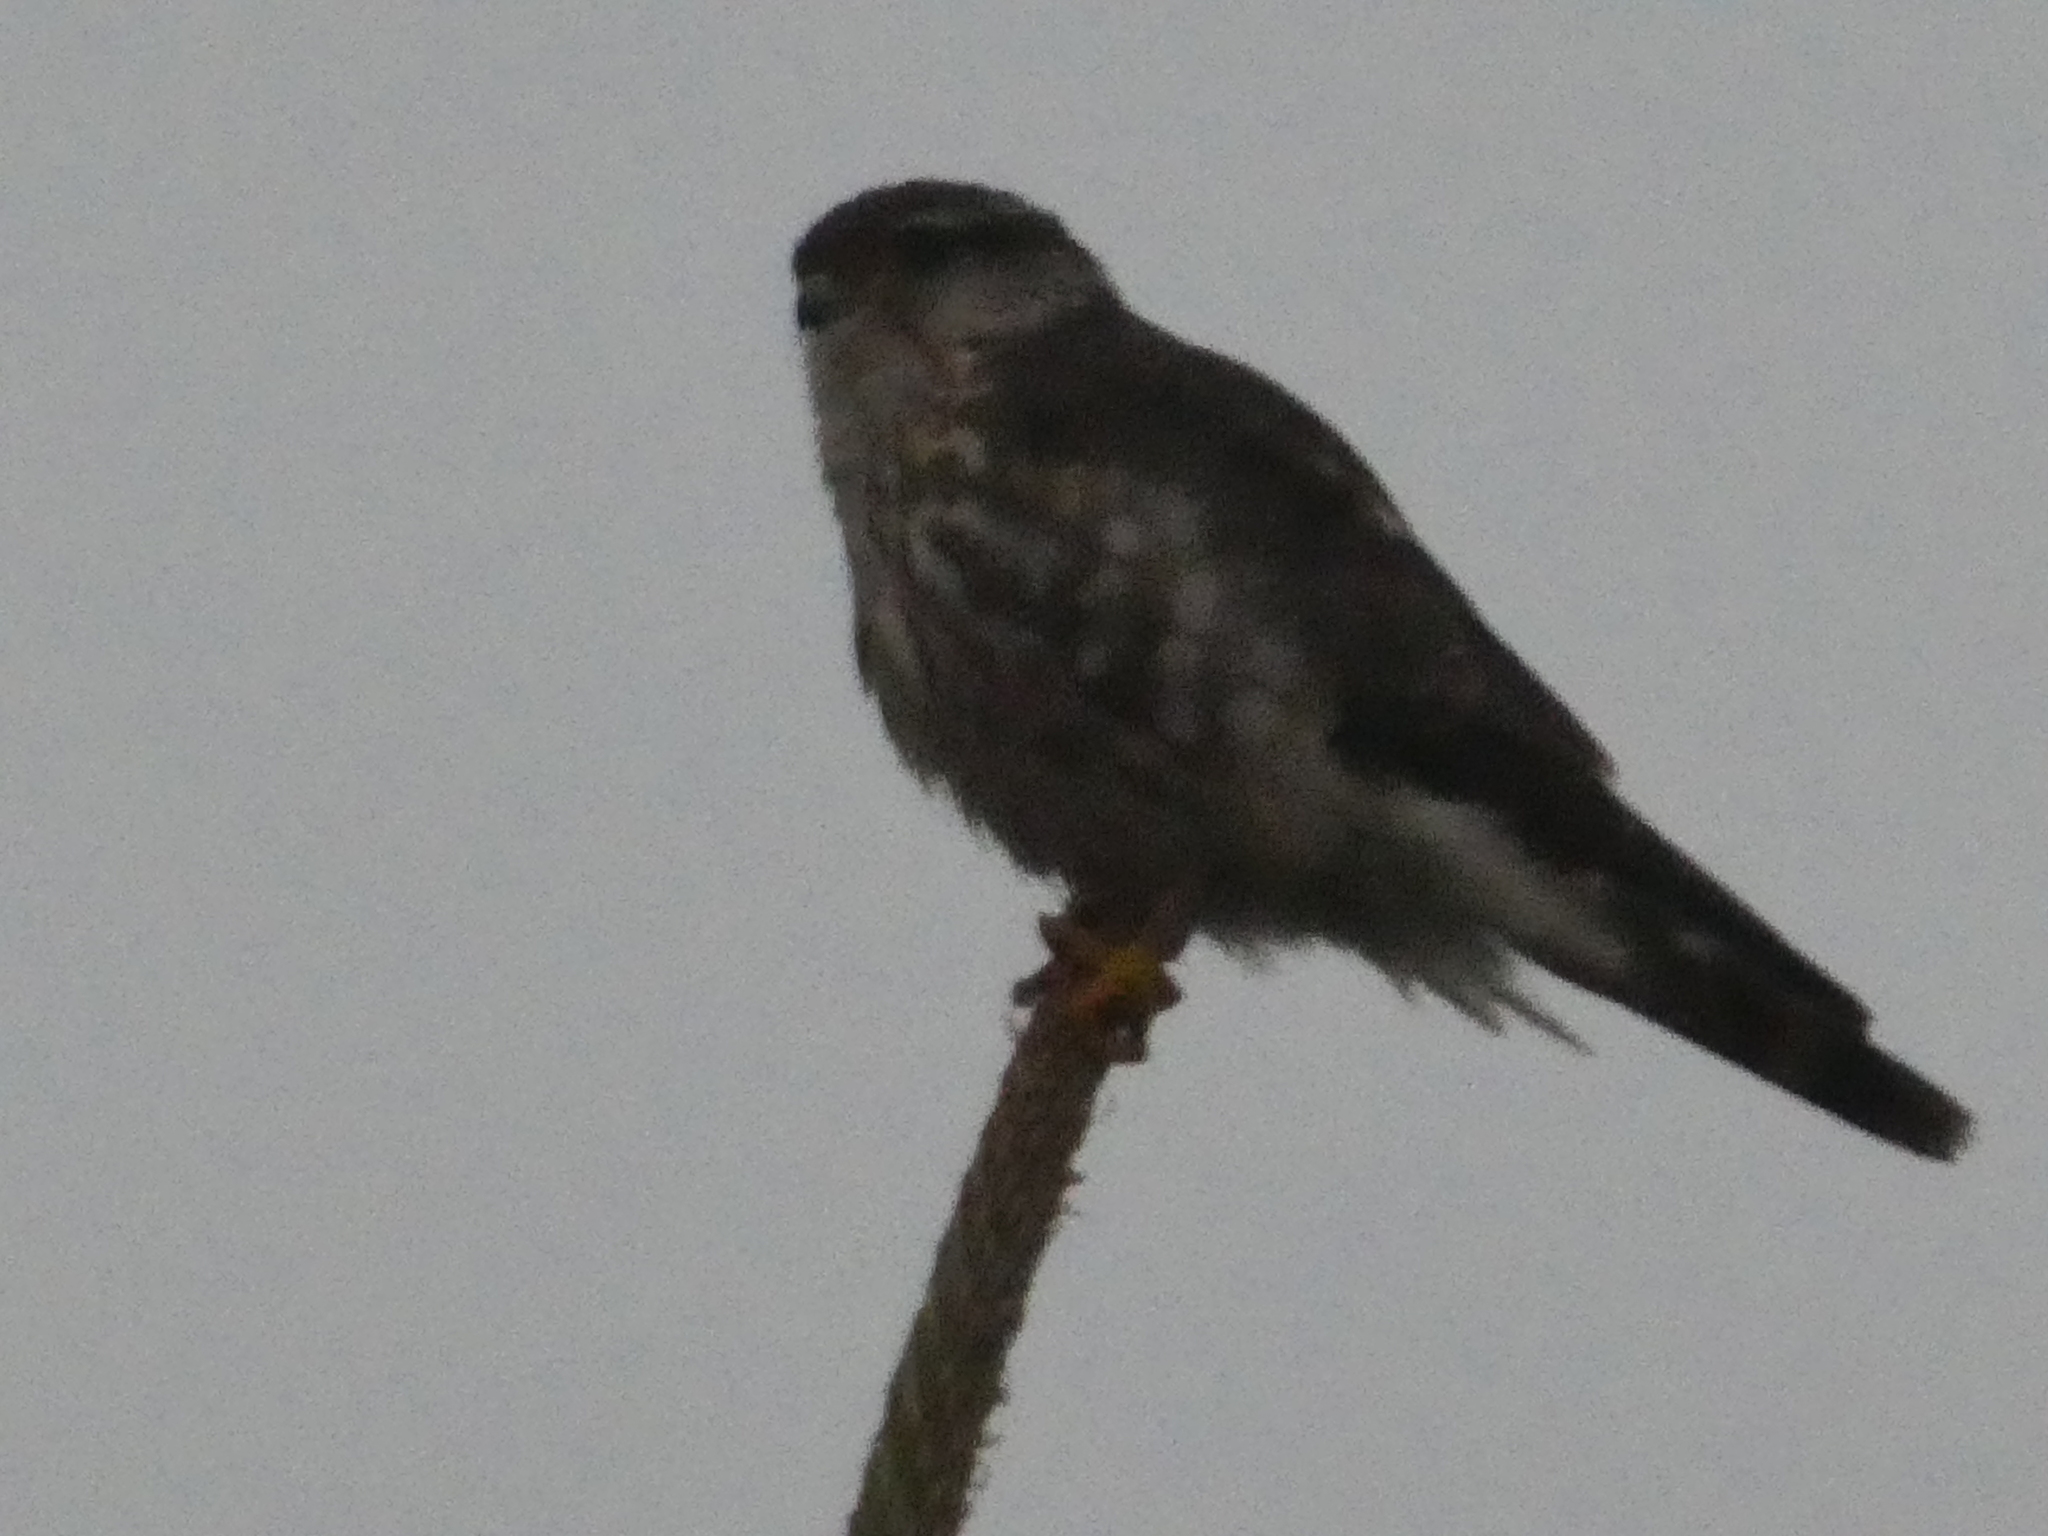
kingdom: Animalia
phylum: Chordata
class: Aves
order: Falconiformes
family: Falconidae
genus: Falco
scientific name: Falco columbarius
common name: Merlin
